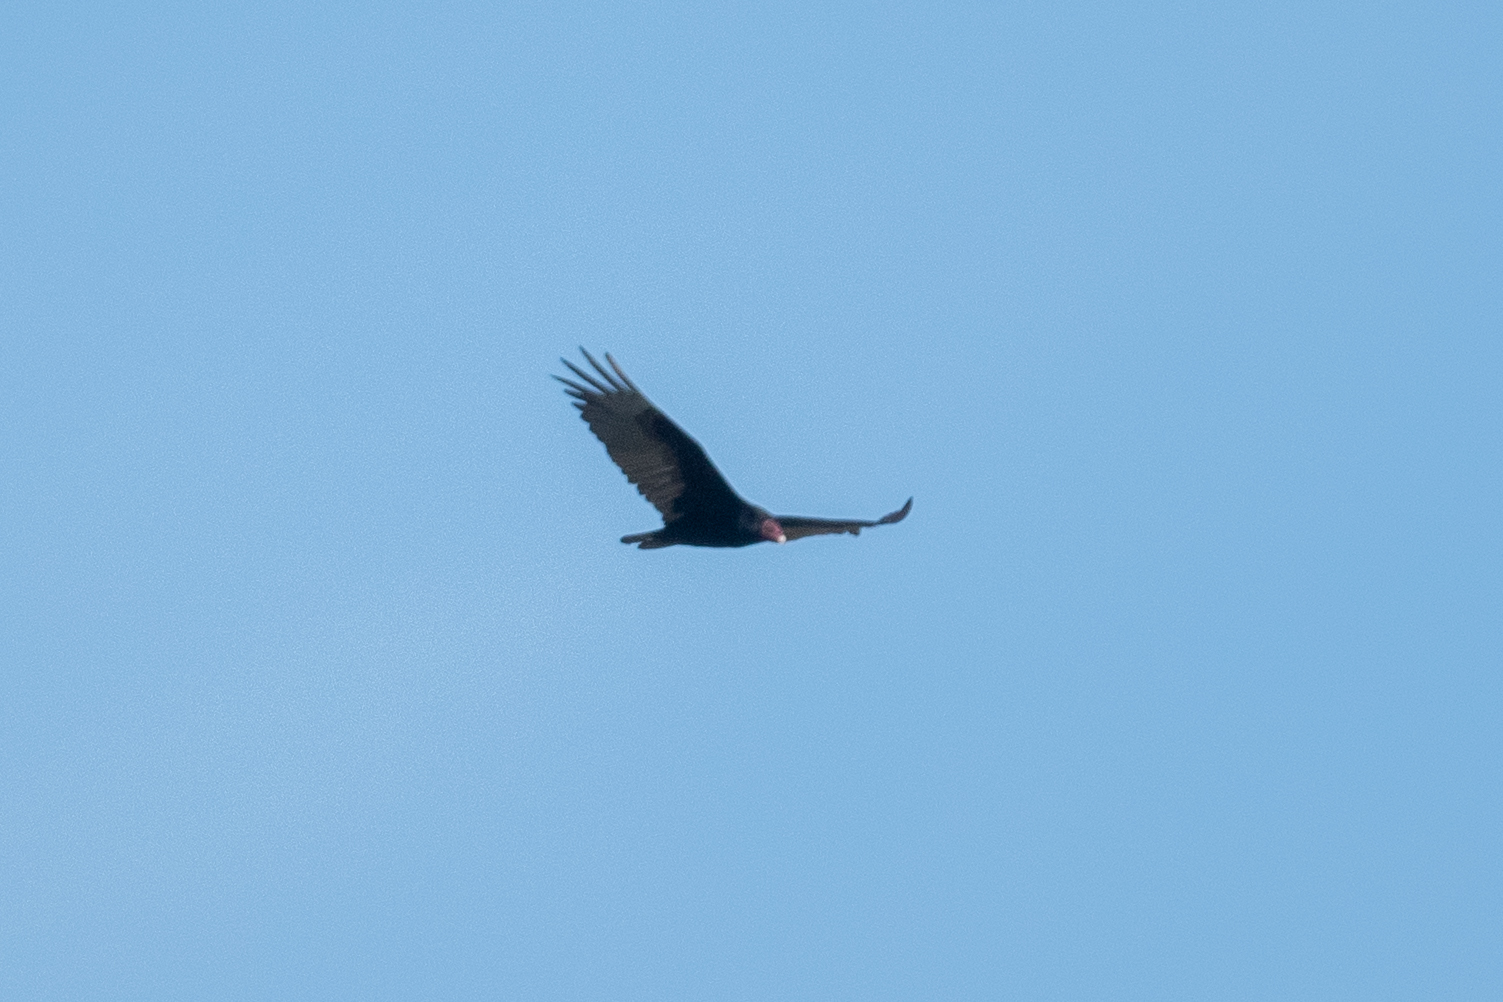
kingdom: Animalia
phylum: Chordata
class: Aves
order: Accipitriformes
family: Cathartidae
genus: Cathartes
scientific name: Cathartes aura
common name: Turkey vulture
